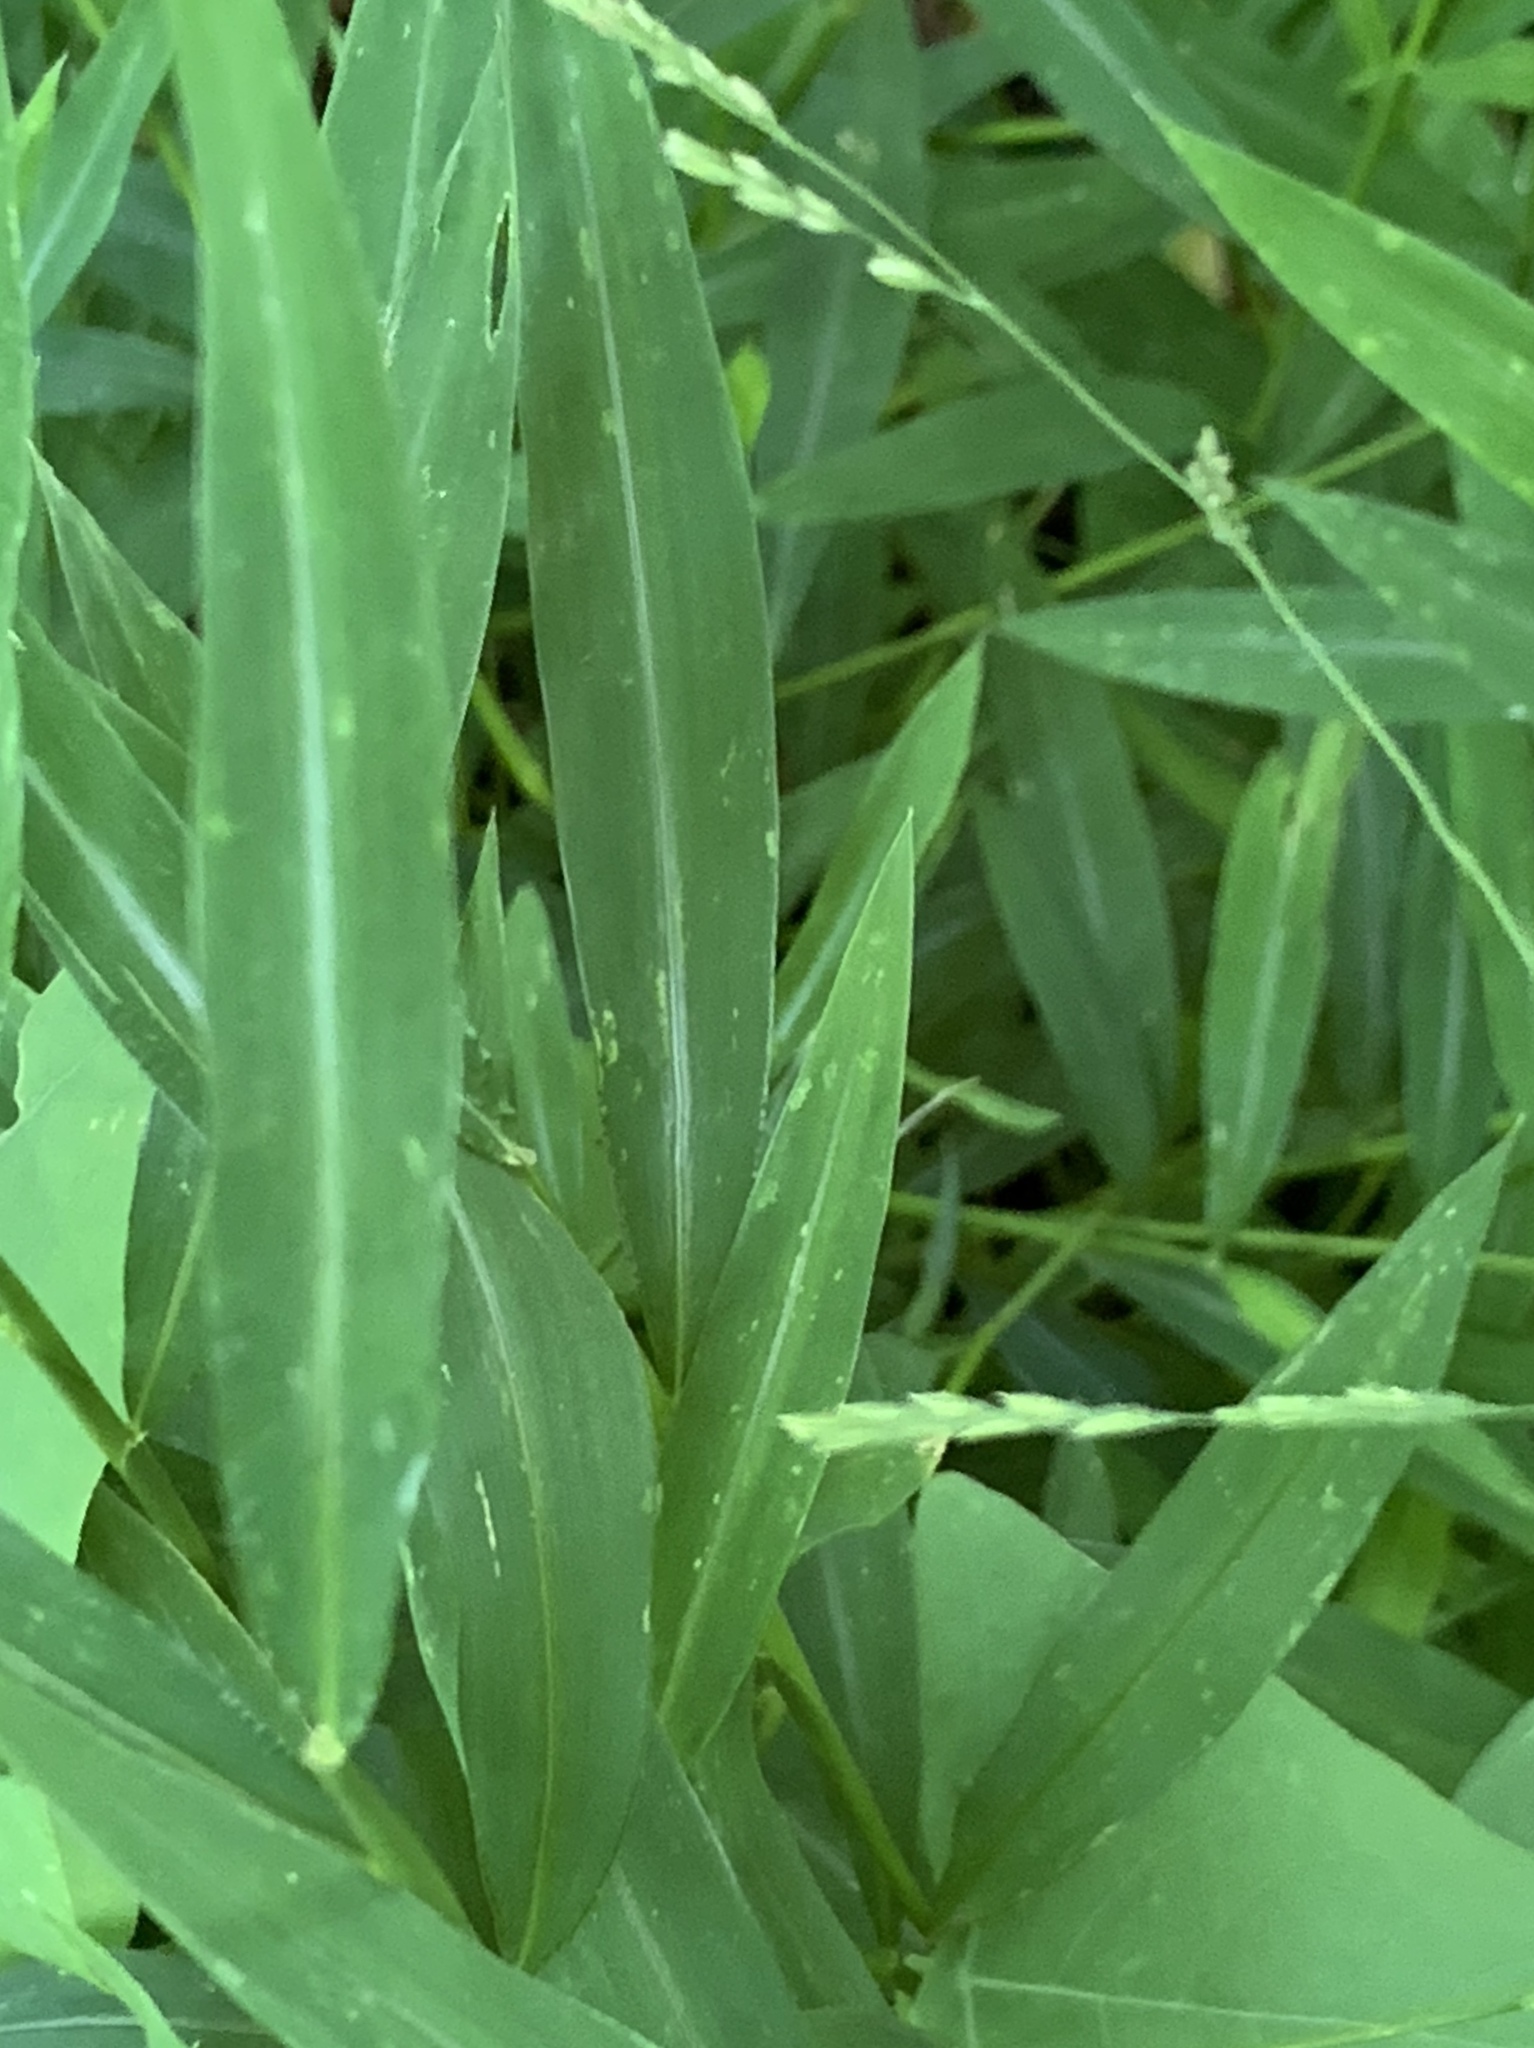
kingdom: Plantae
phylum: Tracheophyta
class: Liliopsida
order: Poales
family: Poaceae
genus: Microstegium
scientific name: Microstegium vimineum
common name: Japanese stiltgrass
